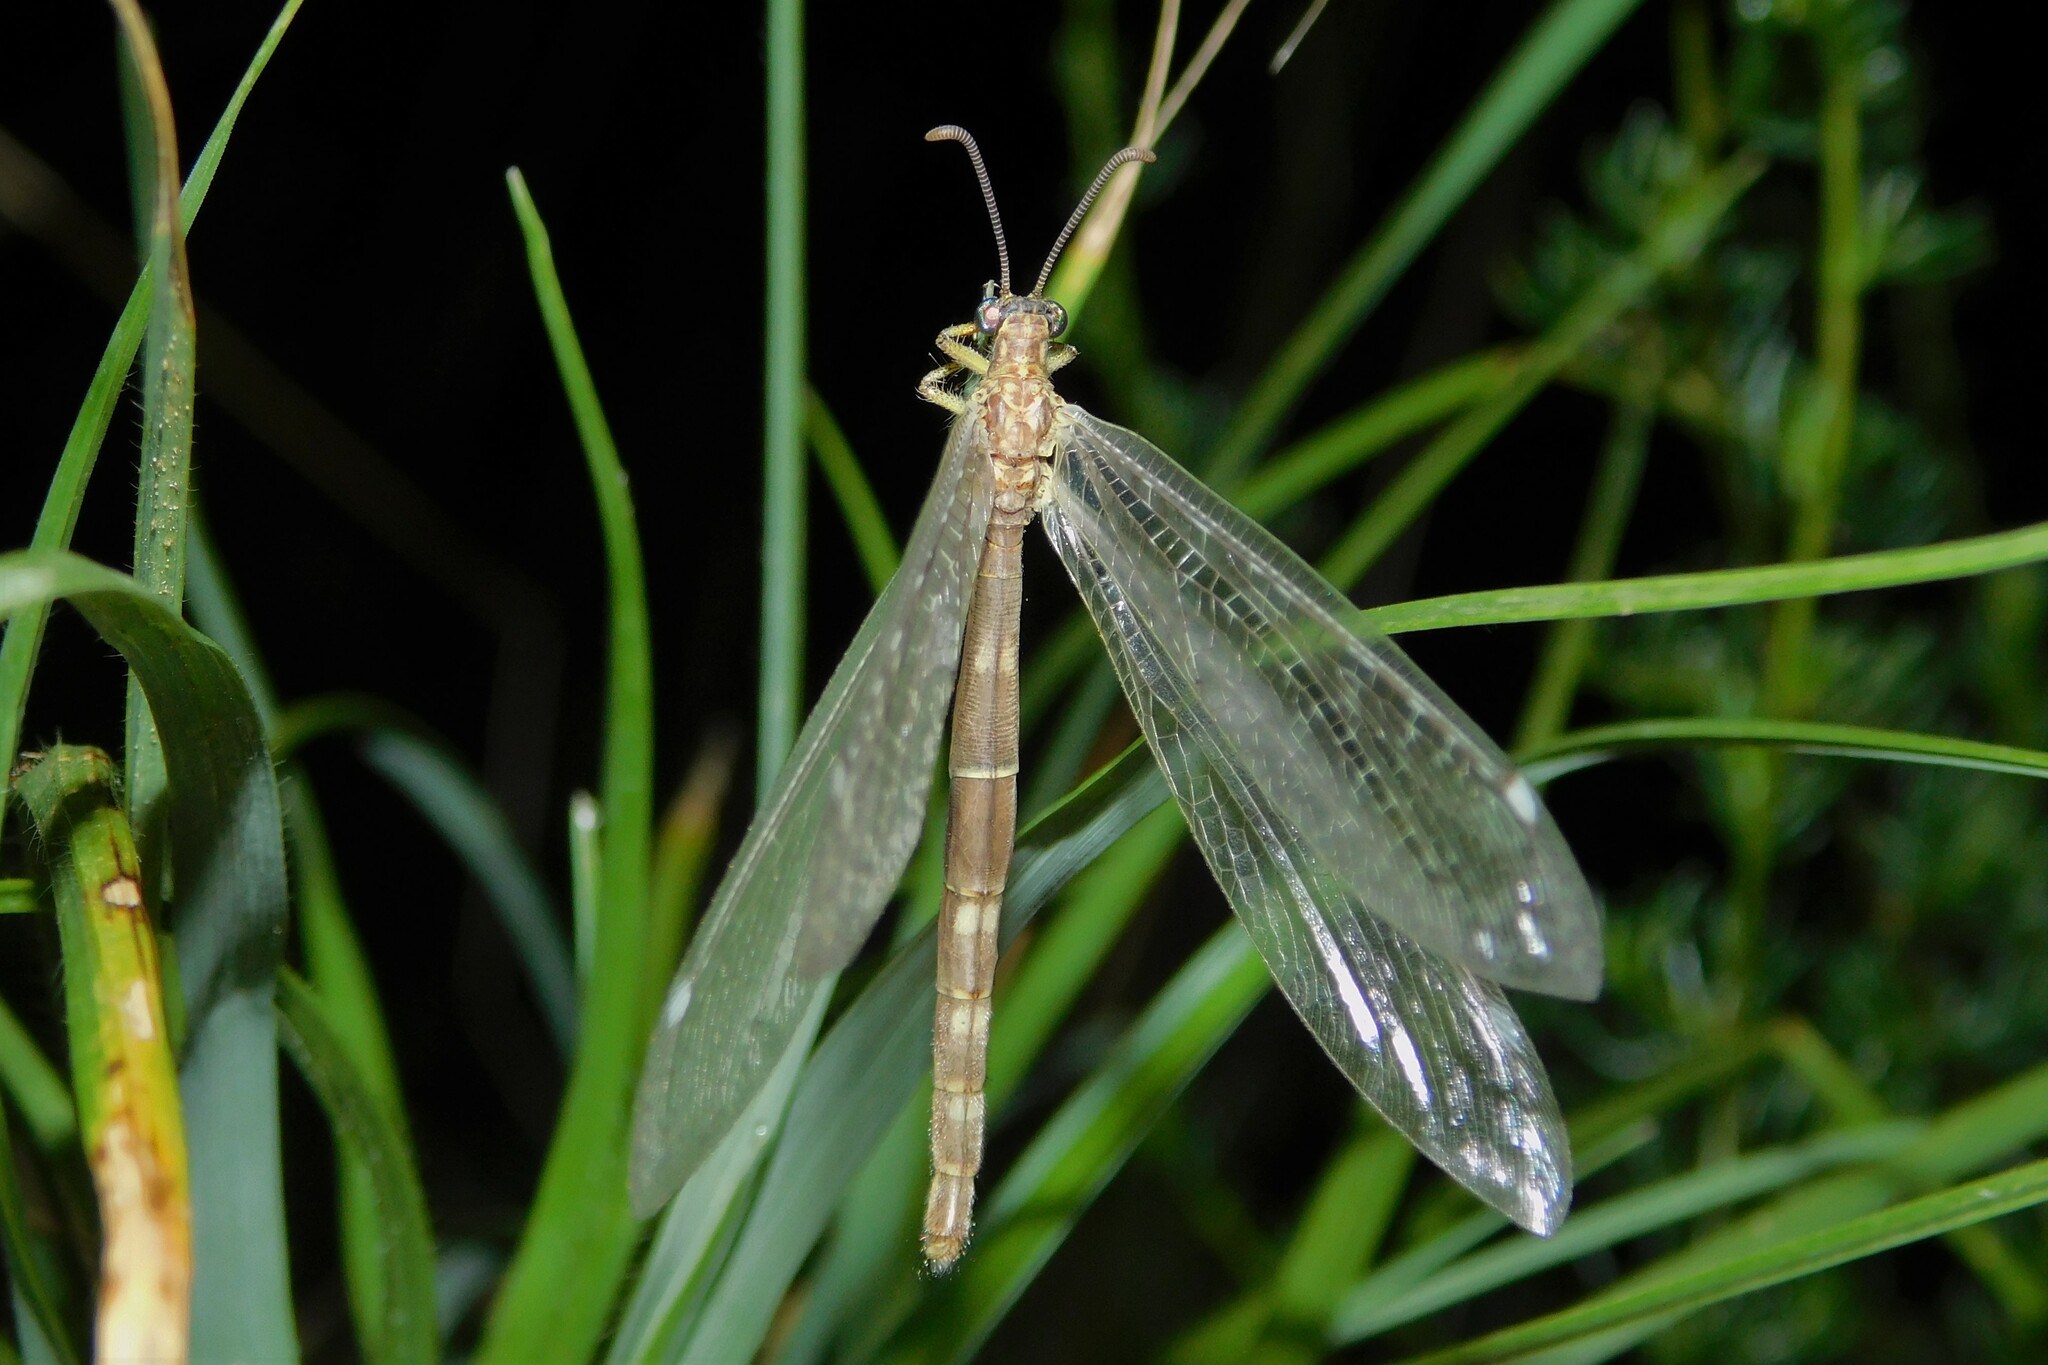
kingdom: Animalia
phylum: Arthropoda
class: Insecta
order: Neuroptera
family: Myrmeleontidae
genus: Distoleon
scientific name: Distoleon tetragrammicus
